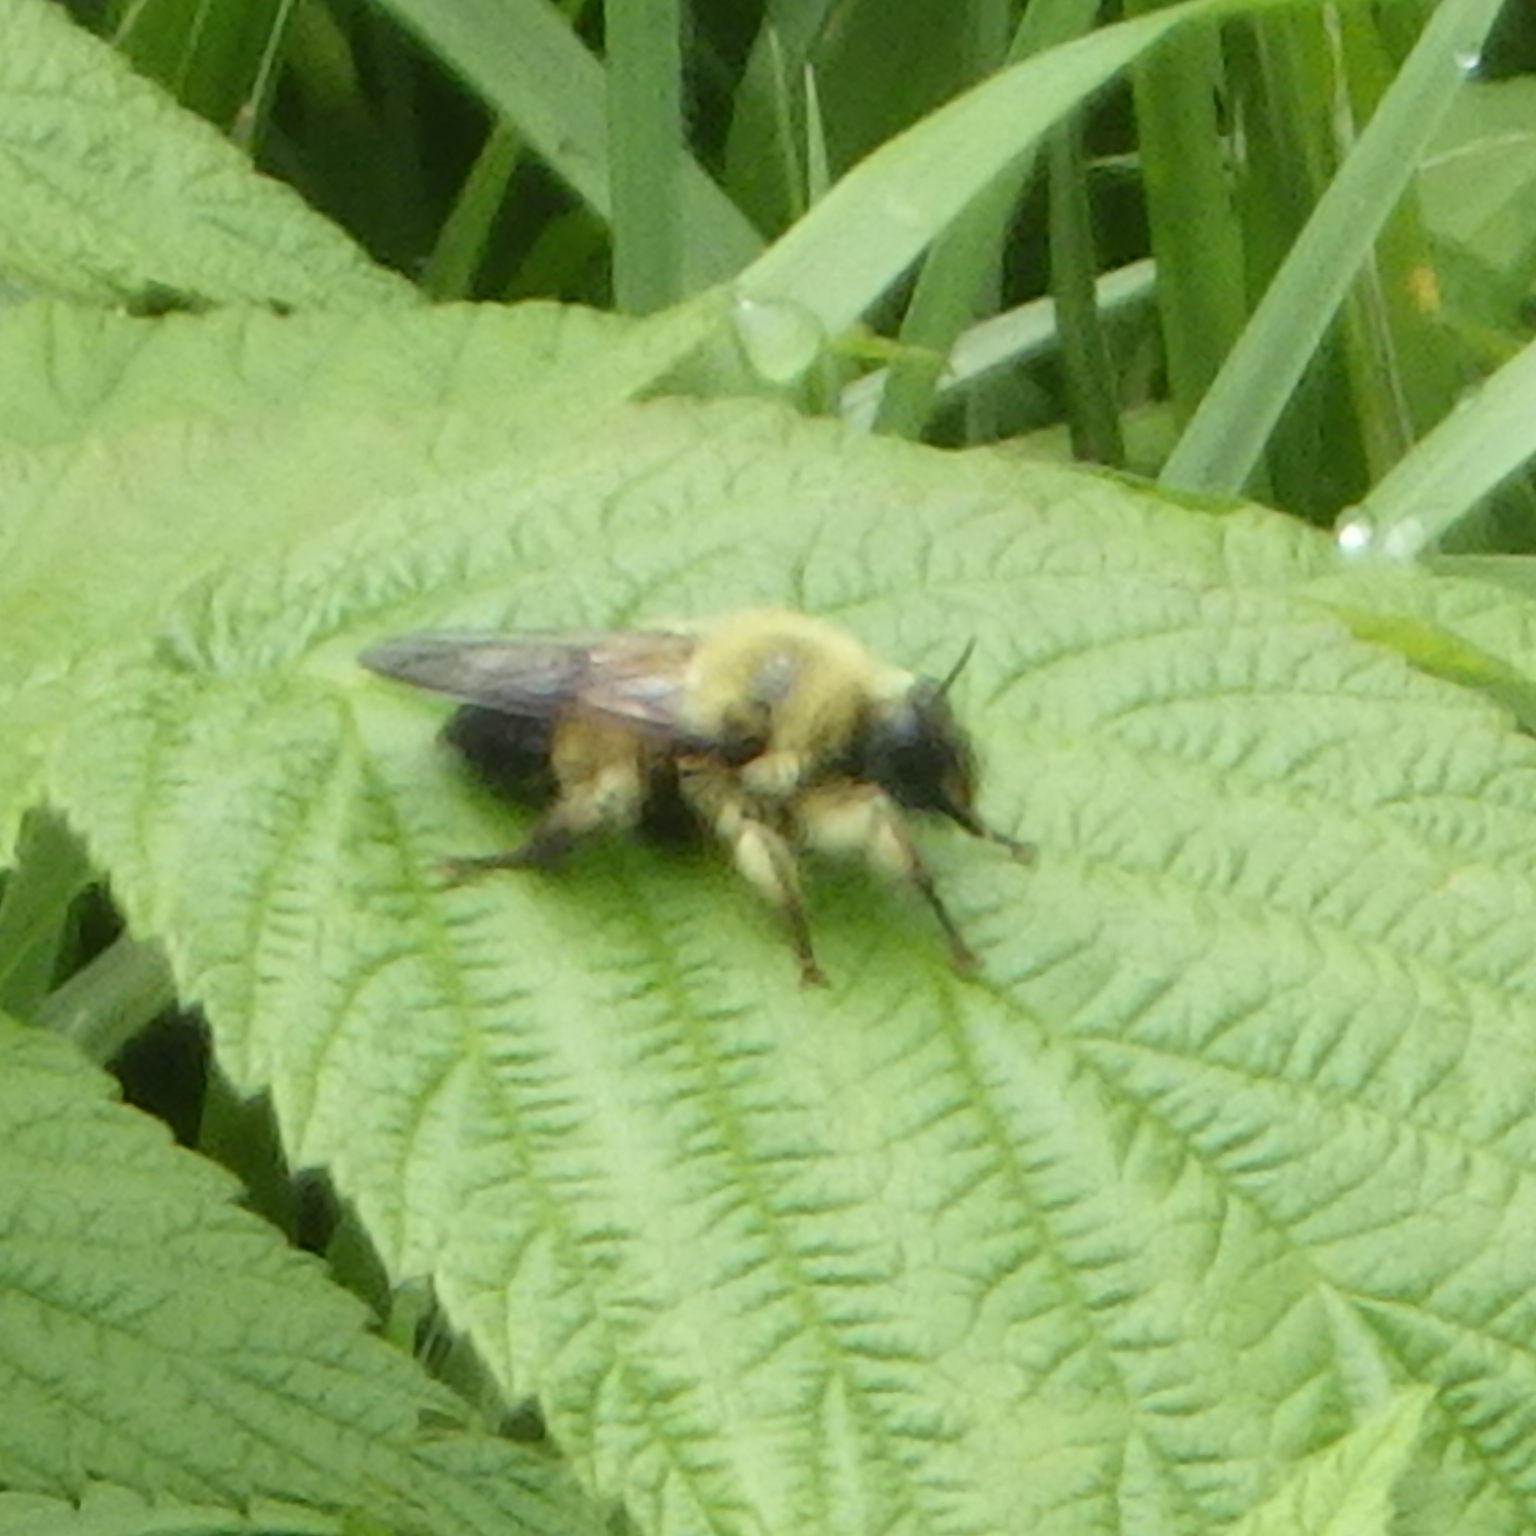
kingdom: Animalia
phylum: Arthropoda
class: Insecta
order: Diptera
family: Asilidae
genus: Laphria
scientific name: Laphria sacrator
